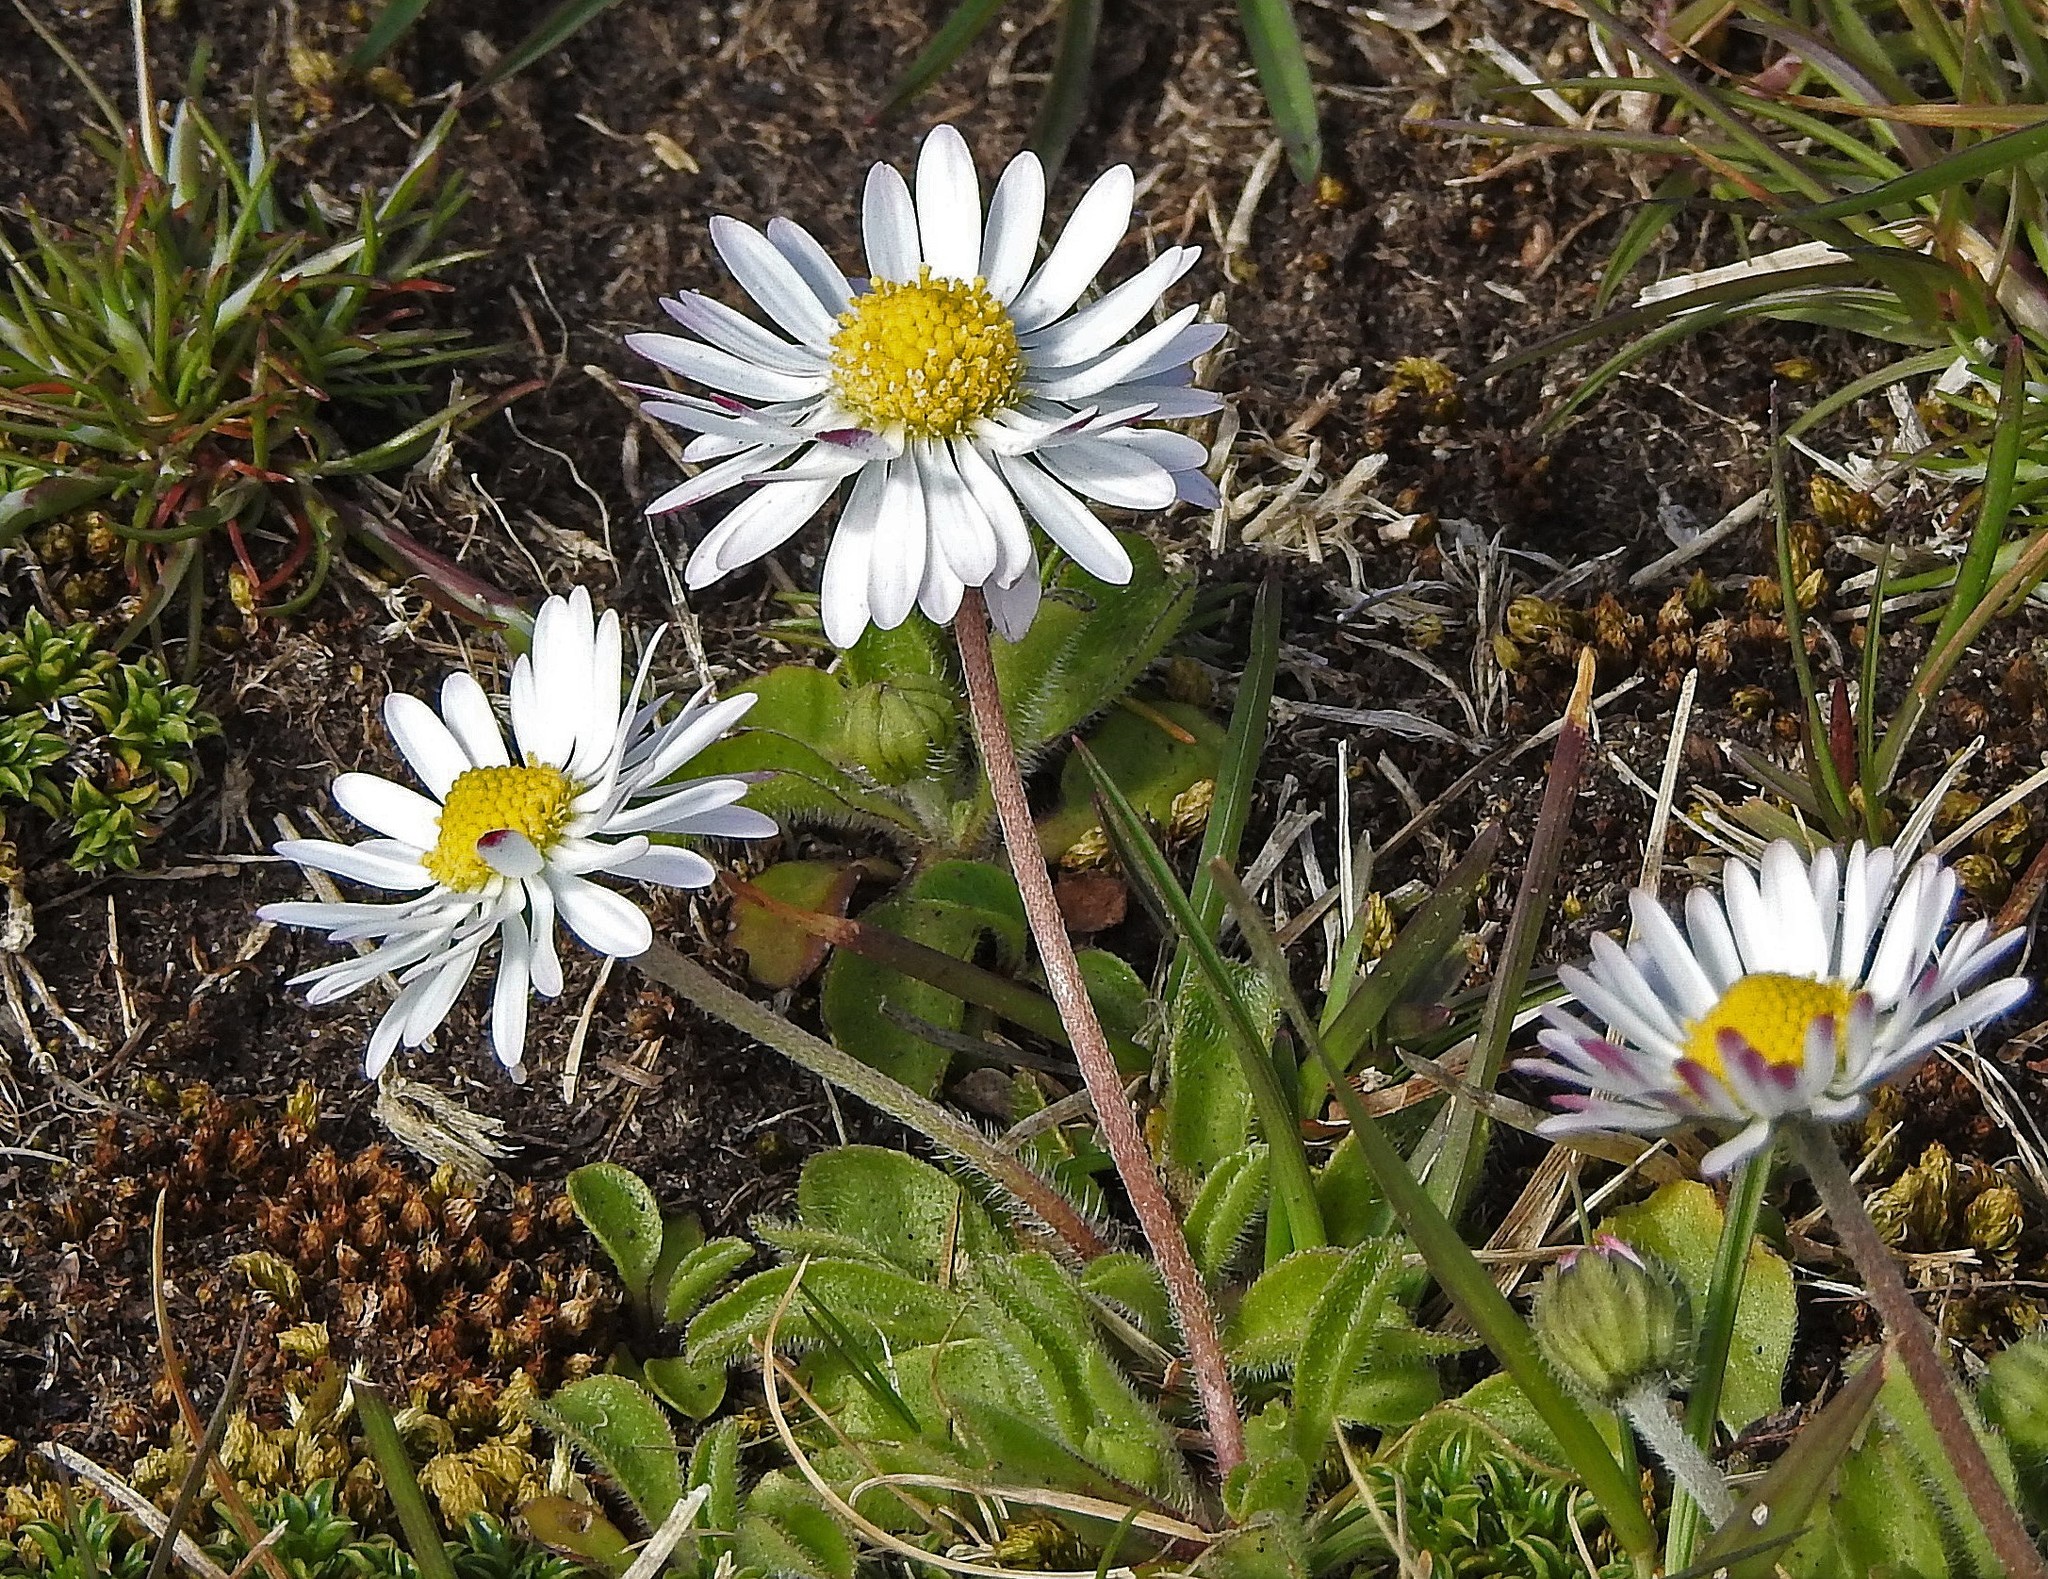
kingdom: Plantae
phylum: Tracheophyta
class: Magnoliopsida
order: Asterales
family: Asteraceae
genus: Bellis
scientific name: Bellis perennis
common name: Lawndaisy
